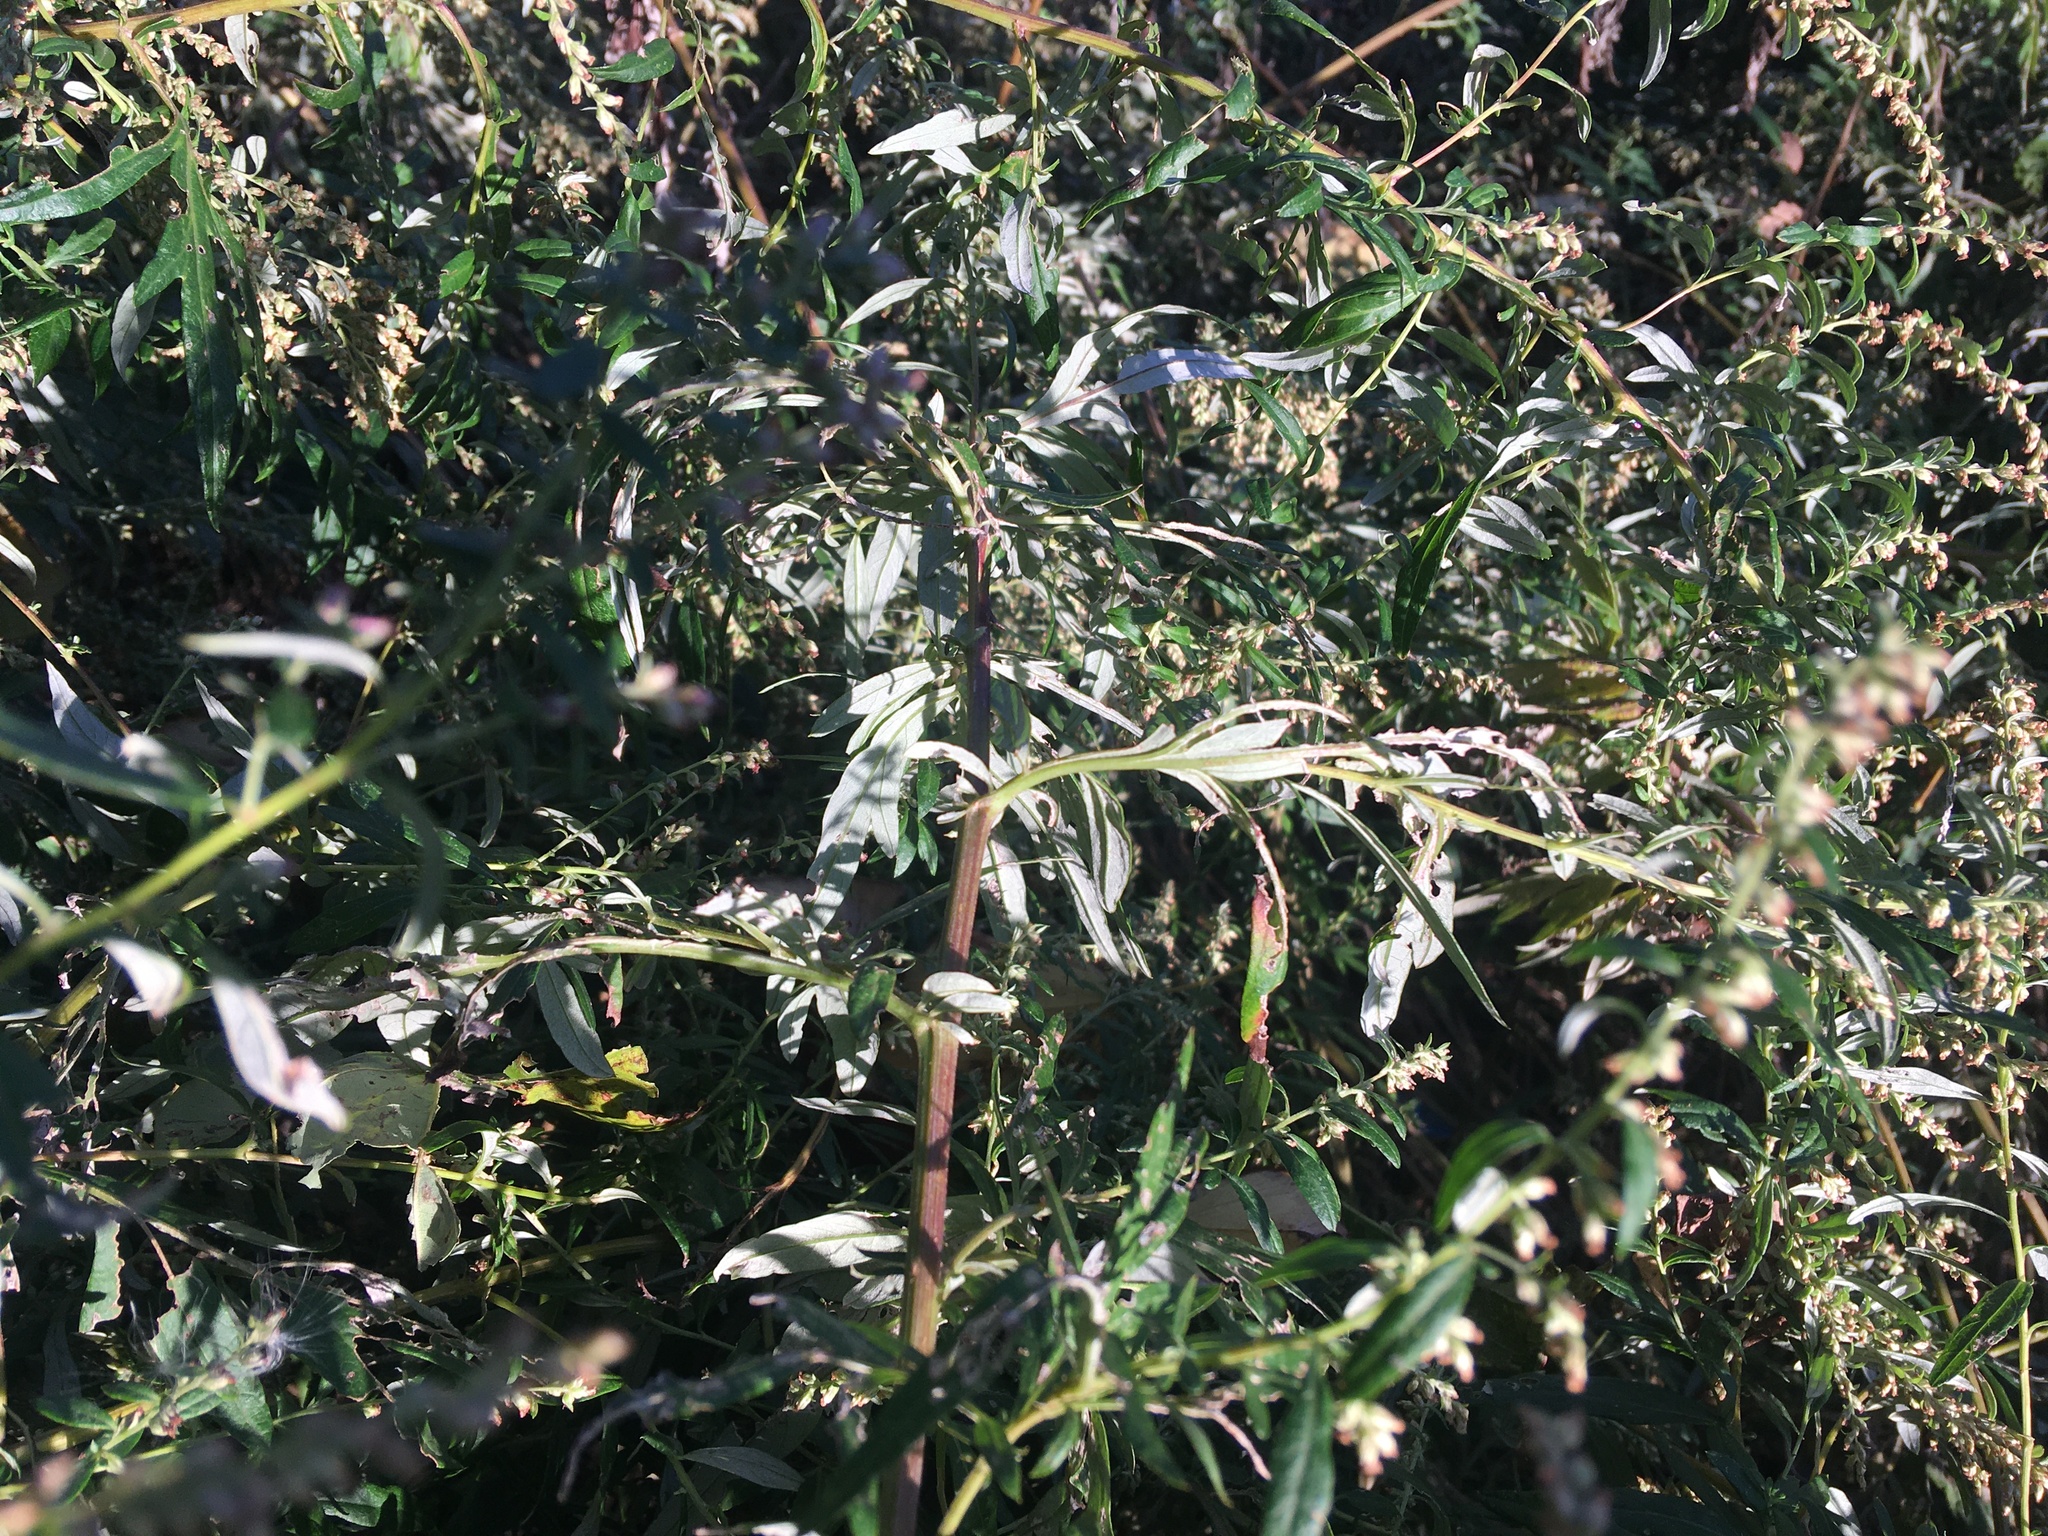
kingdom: Plantae
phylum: Tracheophyta
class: Magnoliopsida
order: Asterales
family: Asteraceae
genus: Artemisia
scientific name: Artemisia vulgaris
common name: Mugwort
